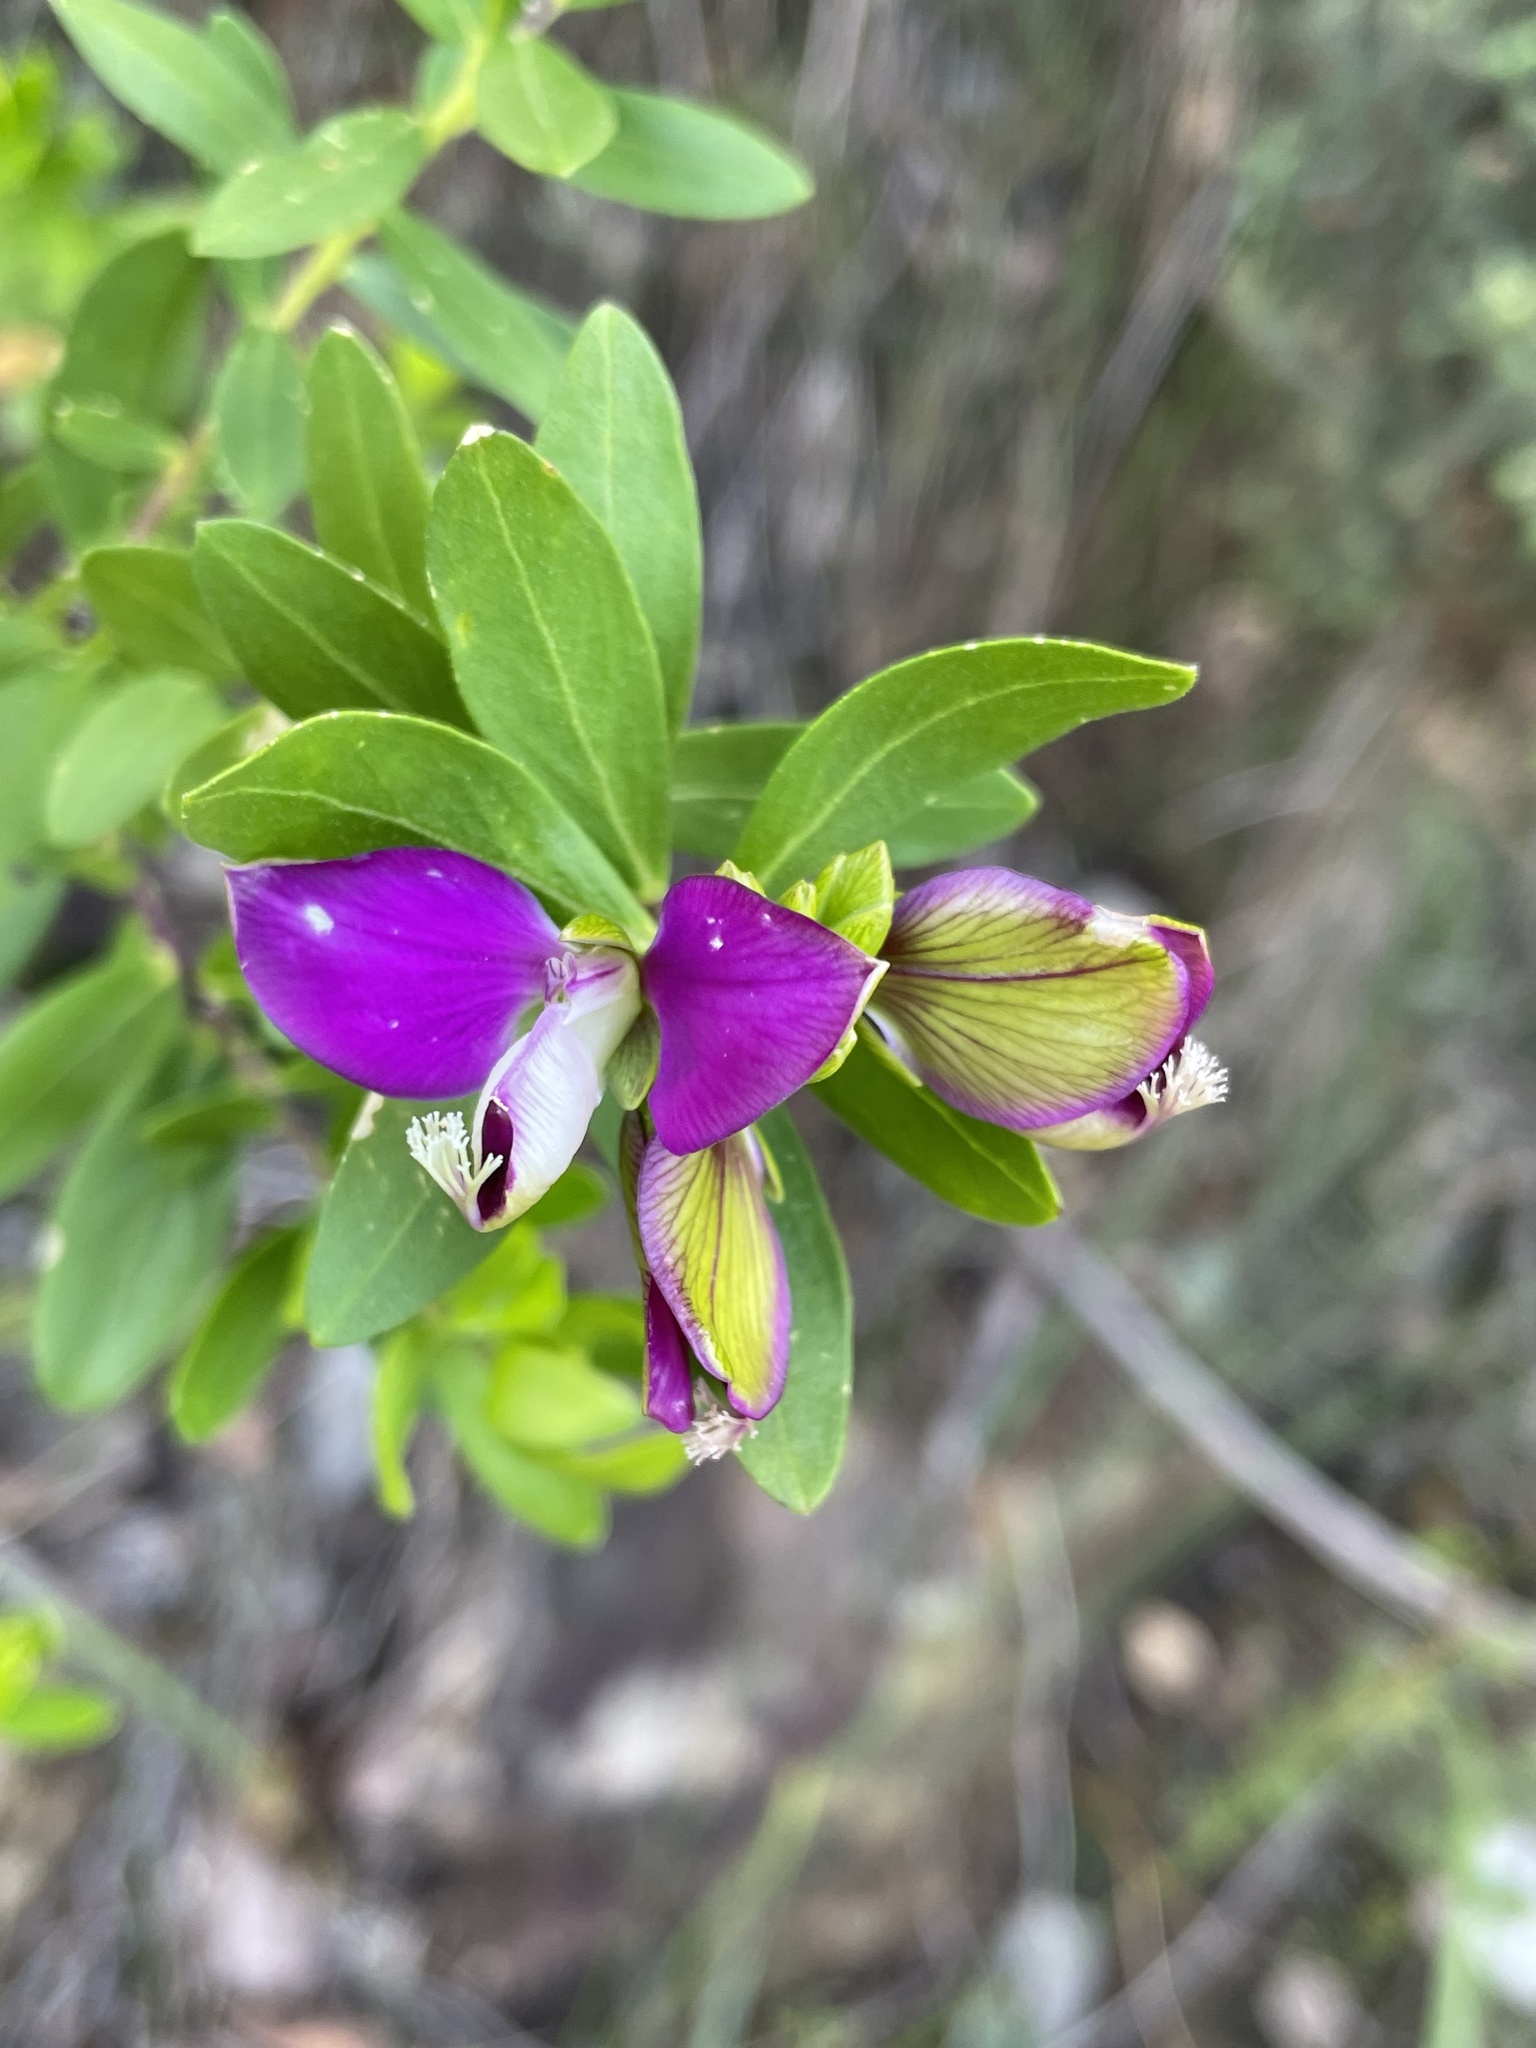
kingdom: Plantae
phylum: Tracheophyta
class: Magnoliopsida
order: Fabales
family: Polygalaceae
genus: Polygala
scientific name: Polygala myrtifolia
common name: Myrtle-leaf milkwort
